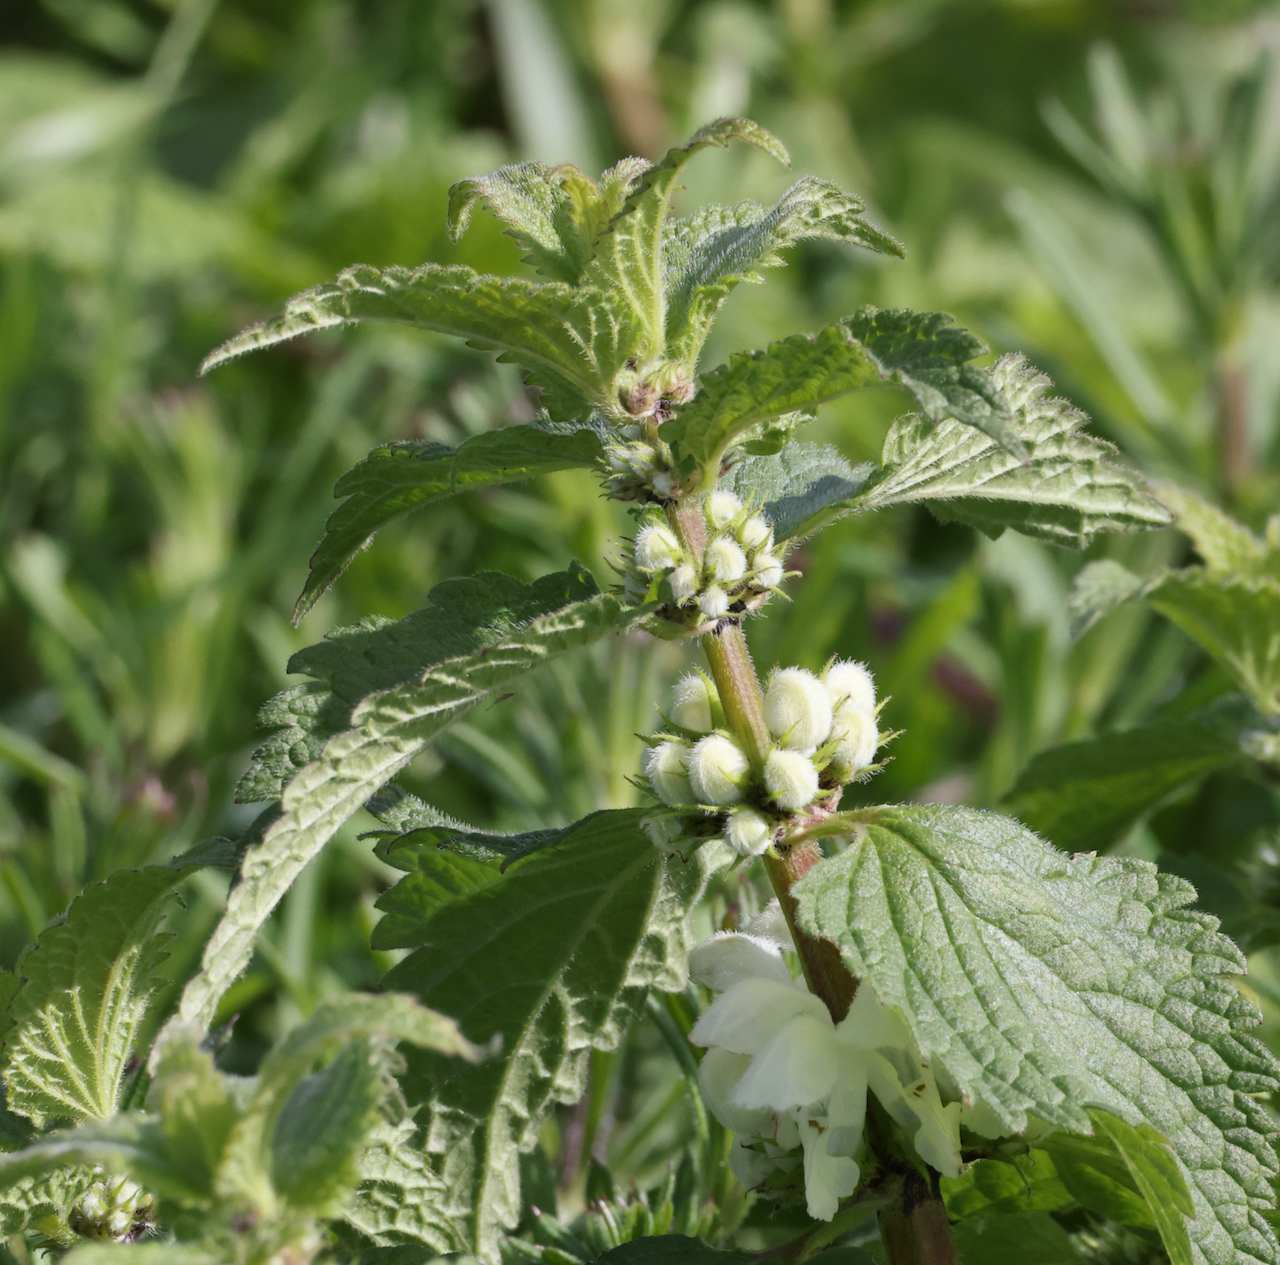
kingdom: Plantae
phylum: Tracheophyta
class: Magnoliopsida
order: Lamiales
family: Lamiaceae
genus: Lamium
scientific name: Lamium album
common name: White dead-nettle
